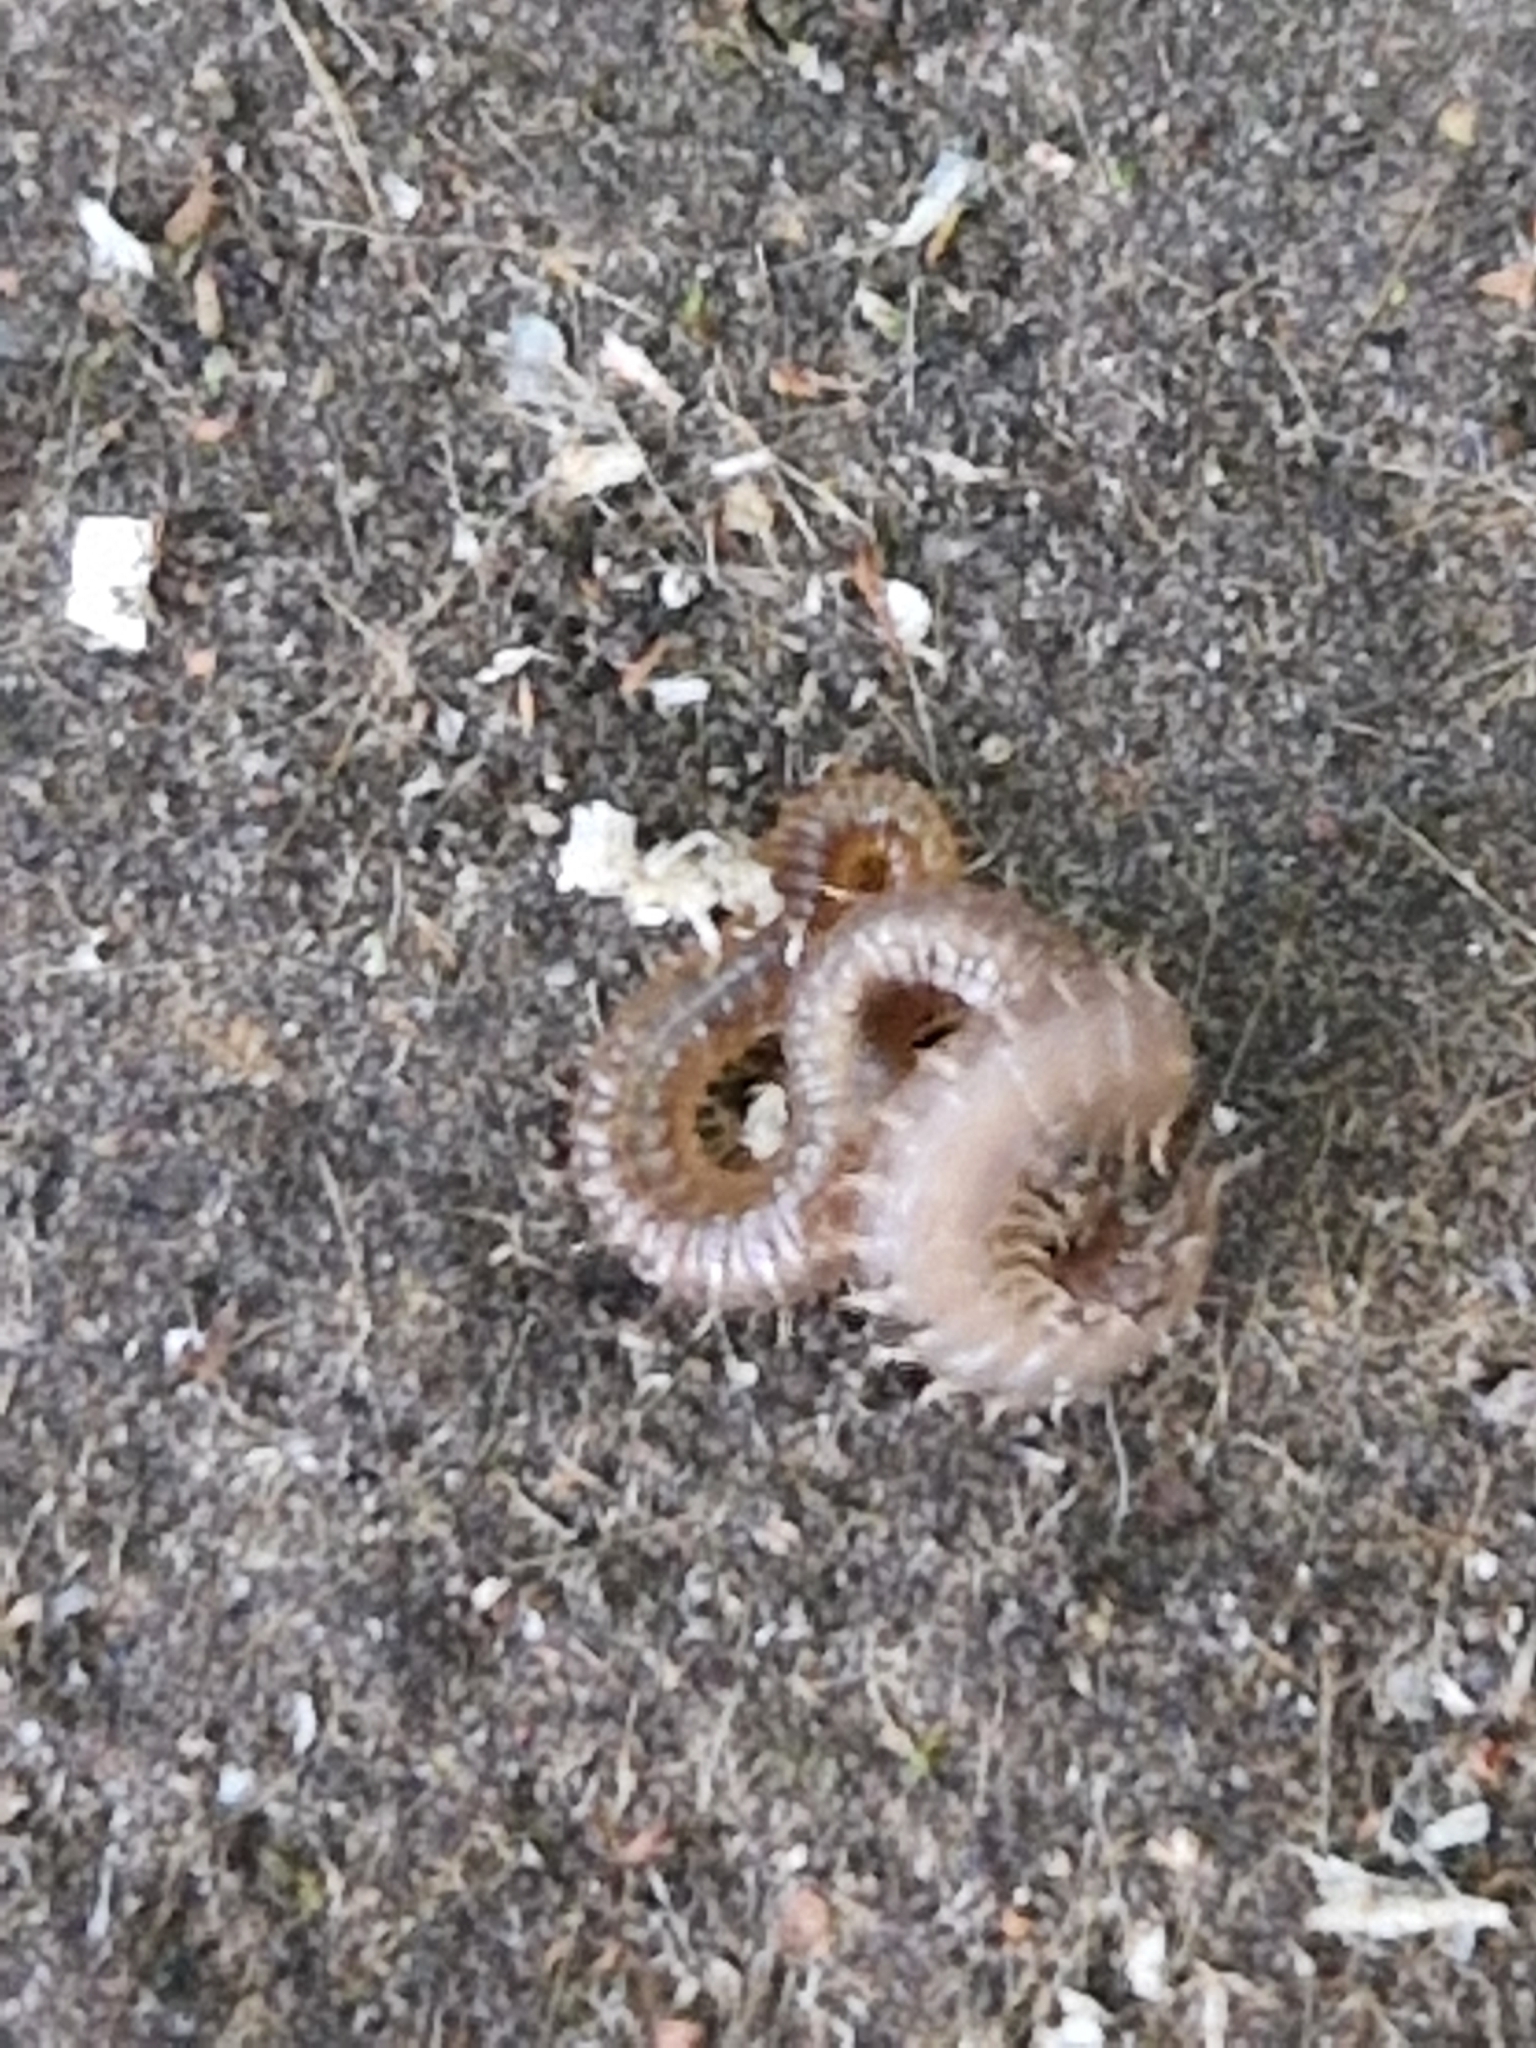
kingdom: Animalia
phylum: Arthropoda
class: Chilopoda
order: Geophilomorpha
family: Dignathodontidae
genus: Henia
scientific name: Henia vesuviana
